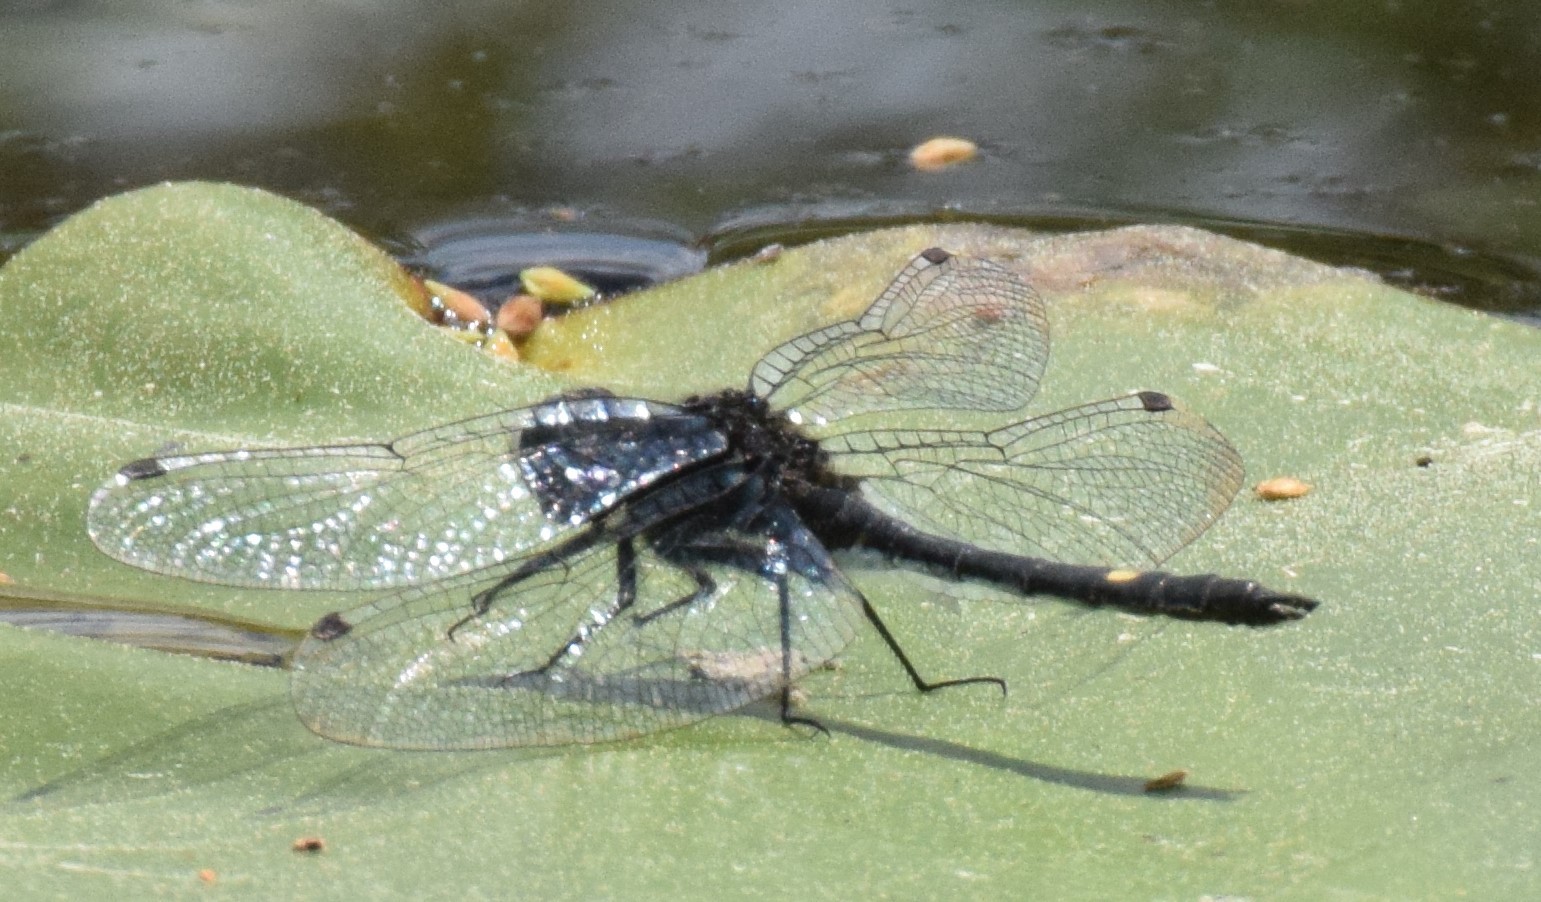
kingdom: Animalia
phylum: Arthropoda
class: Insecta
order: Odonata
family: Libellulidae
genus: Leucorrhinia
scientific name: Leucorrhinia intacta
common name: Dot-tailed whiteface
